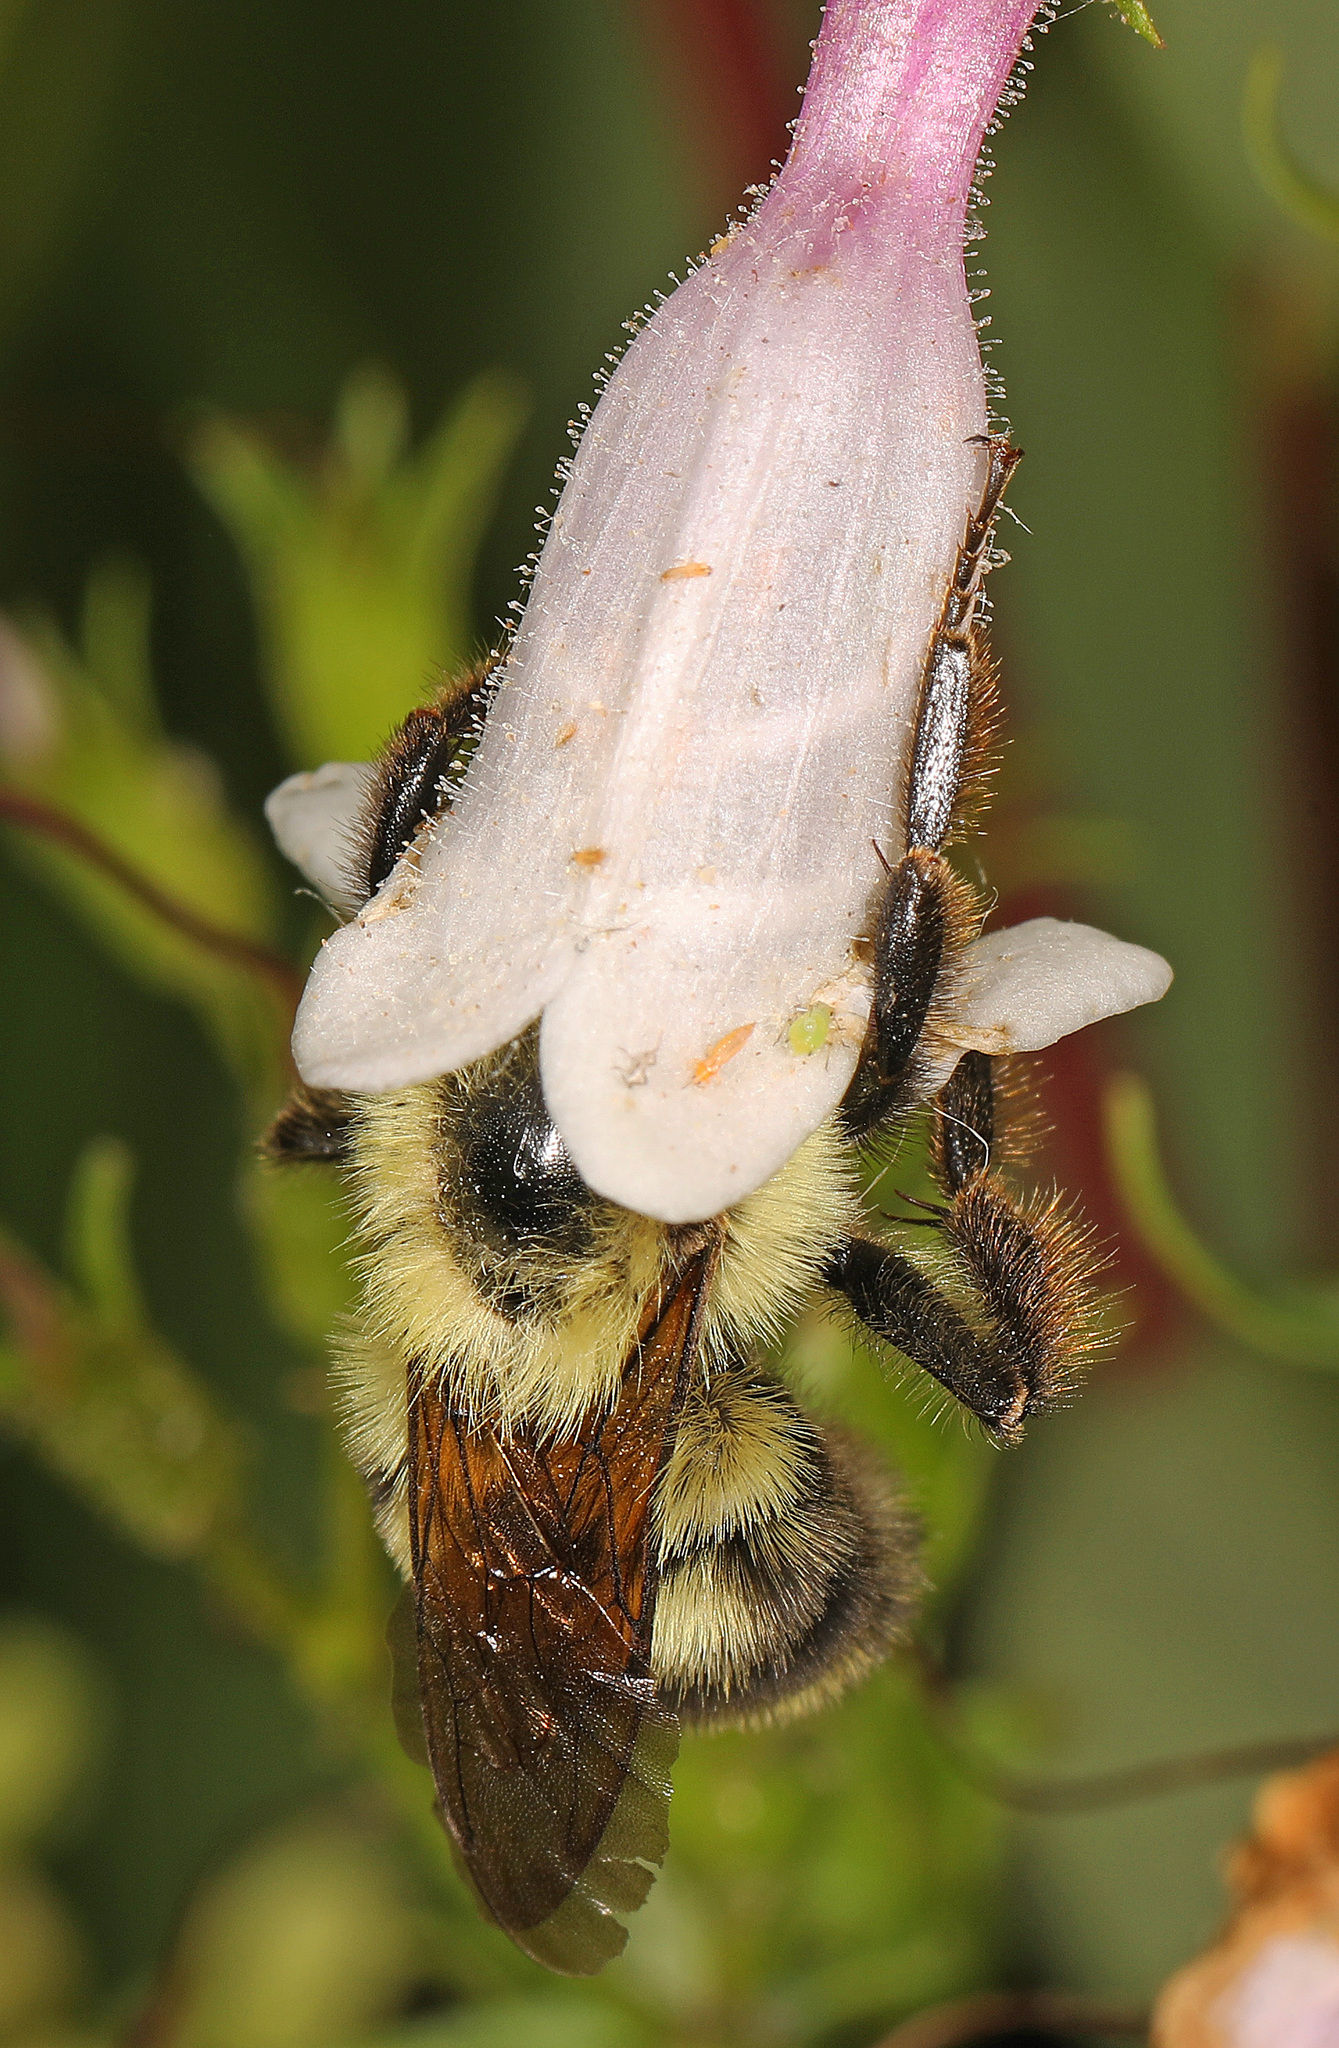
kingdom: Animalia
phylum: Arthropoda
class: Insecta
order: Hymenoptera
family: Apidae
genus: Bombus
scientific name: Bombus bimaculatus
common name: Two-spotted bumble bee
